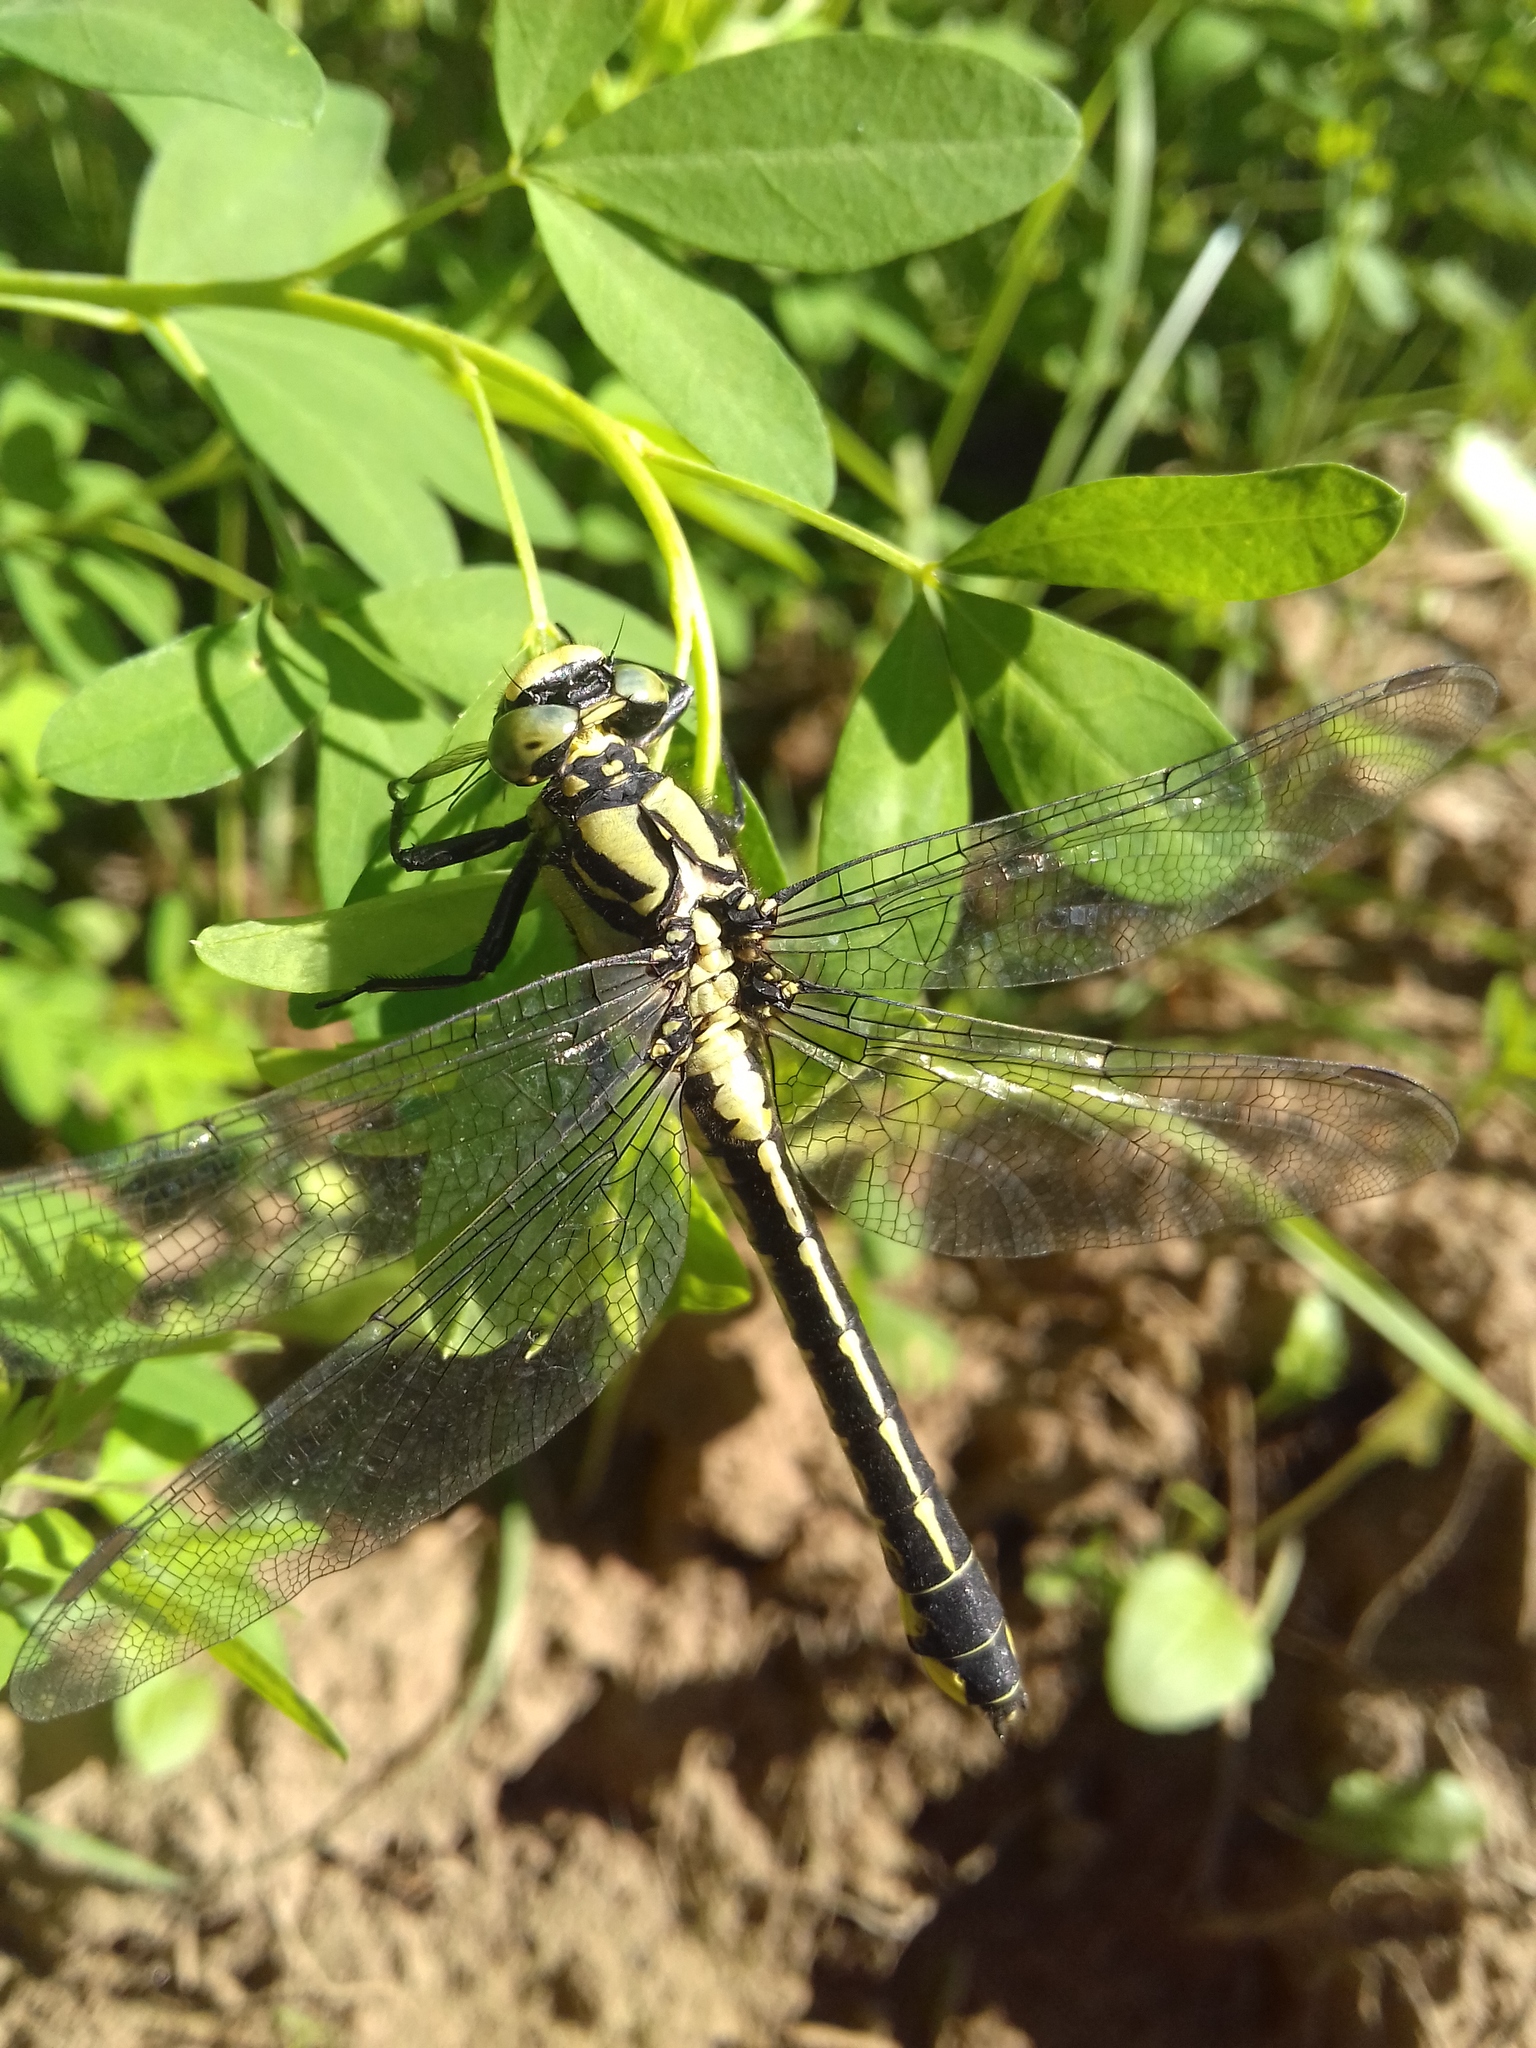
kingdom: Animalia
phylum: Arthropoda
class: Insecta
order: Odonata
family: Gomphidae
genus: Gomphus
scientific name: Gomphus vulgatissimus
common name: Club-tailed dragonfly
